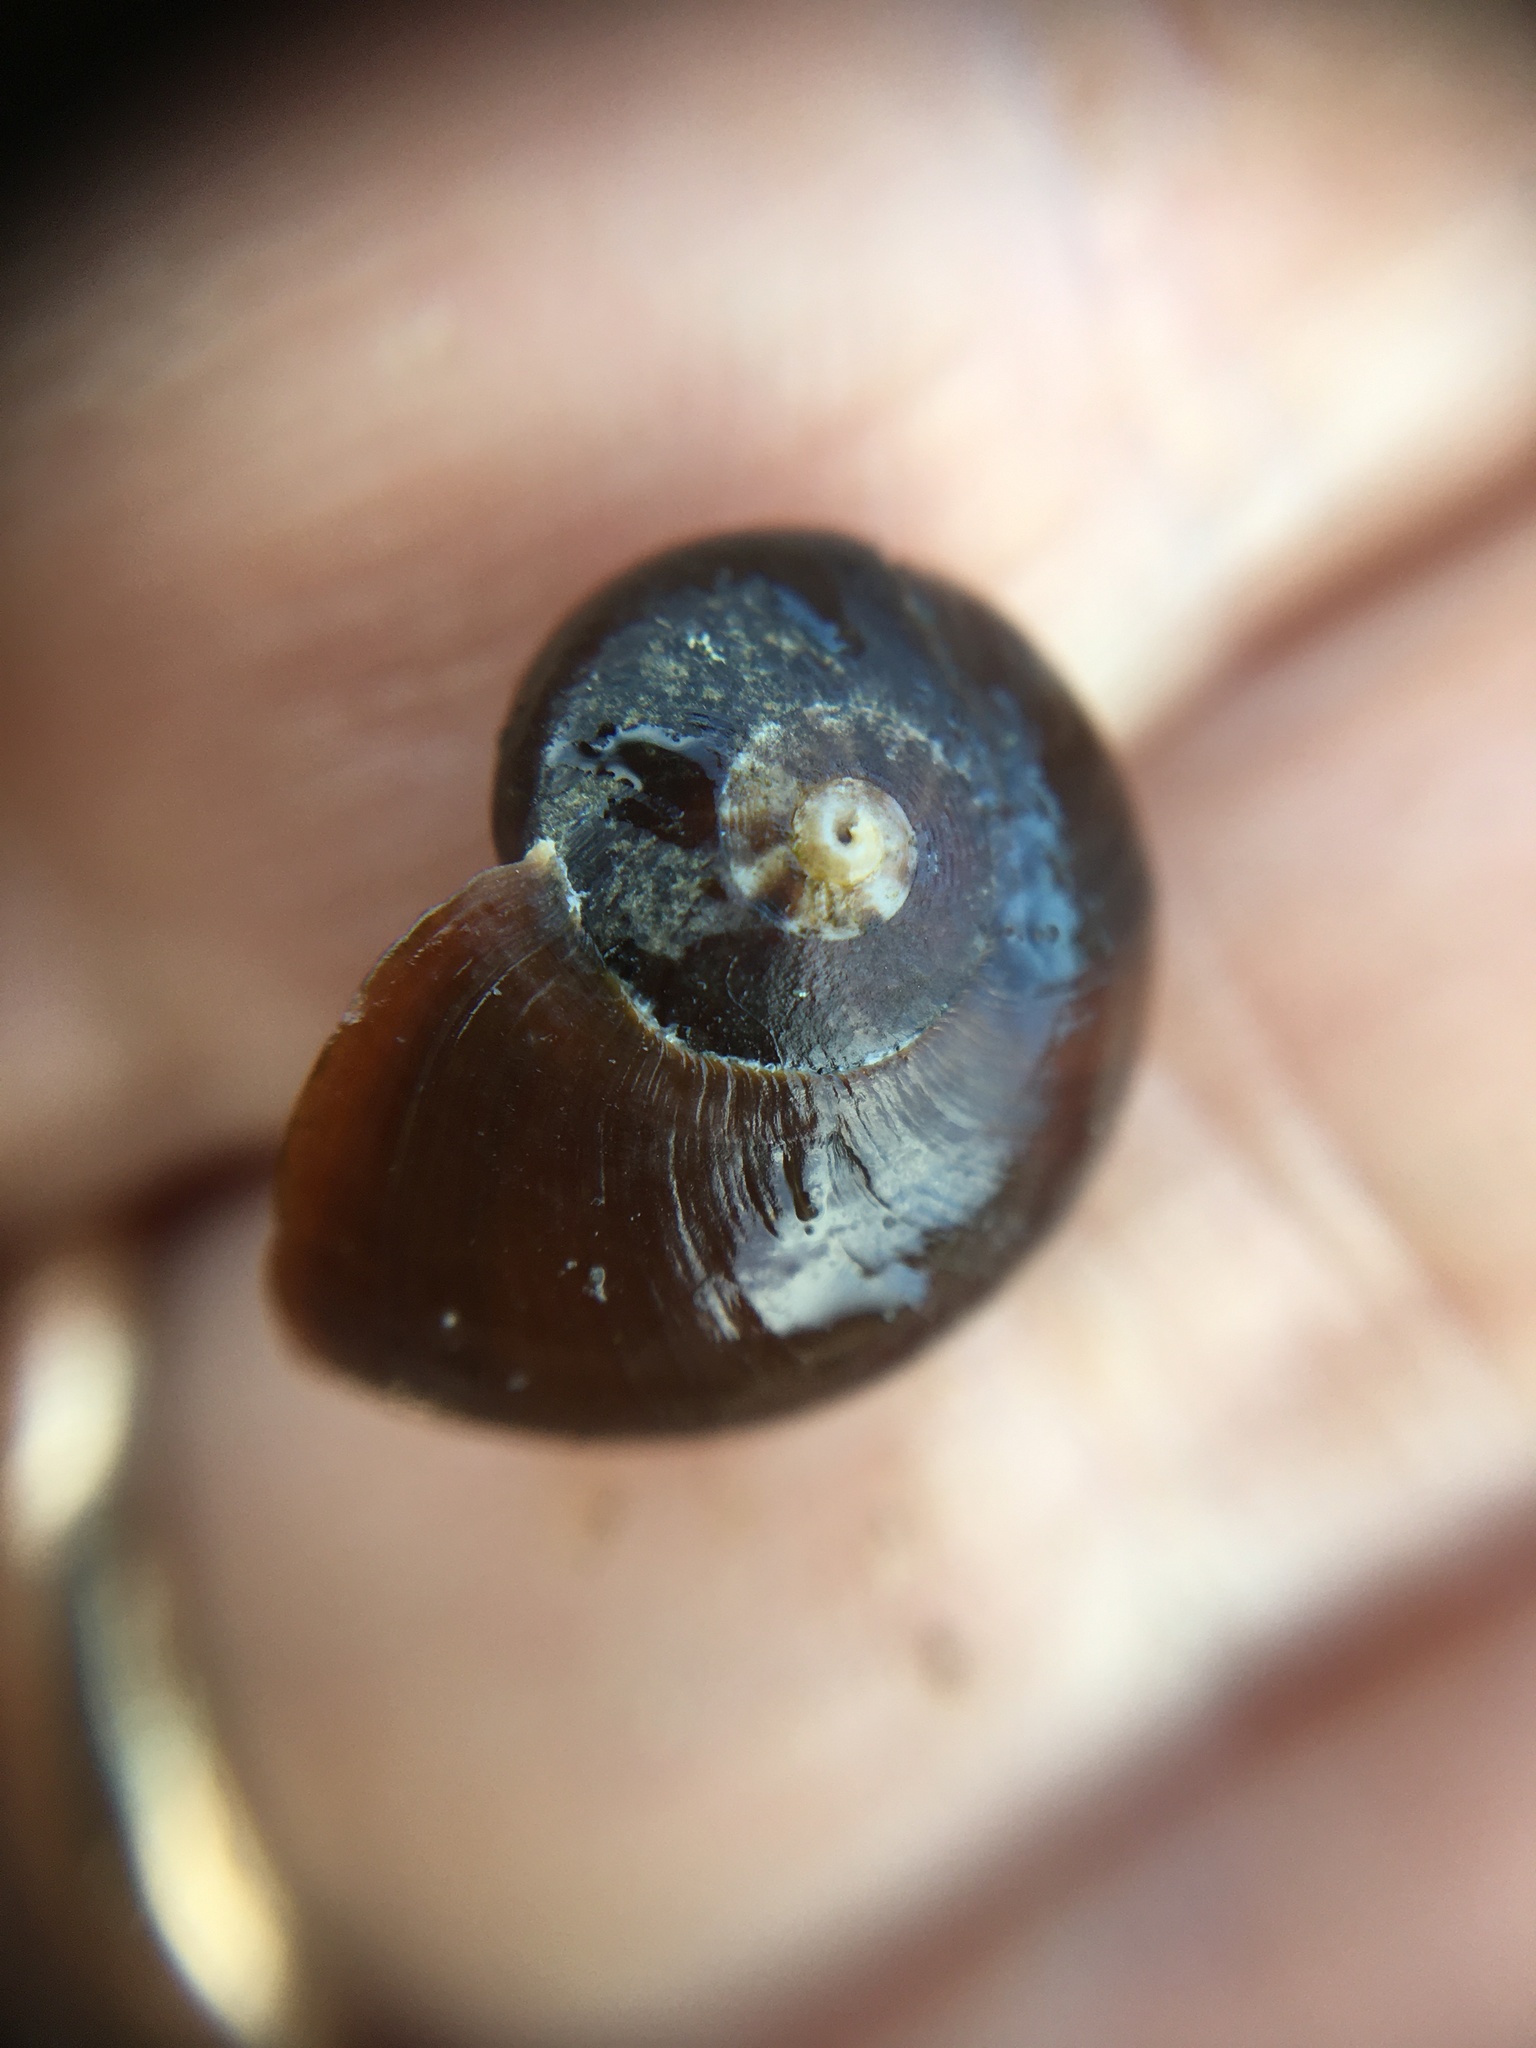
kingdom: Animalia
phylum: Mollusca
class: Gastropoda
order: Trochida
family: Tegulidae
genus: Norrisia
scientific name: Norrisia norrisii
